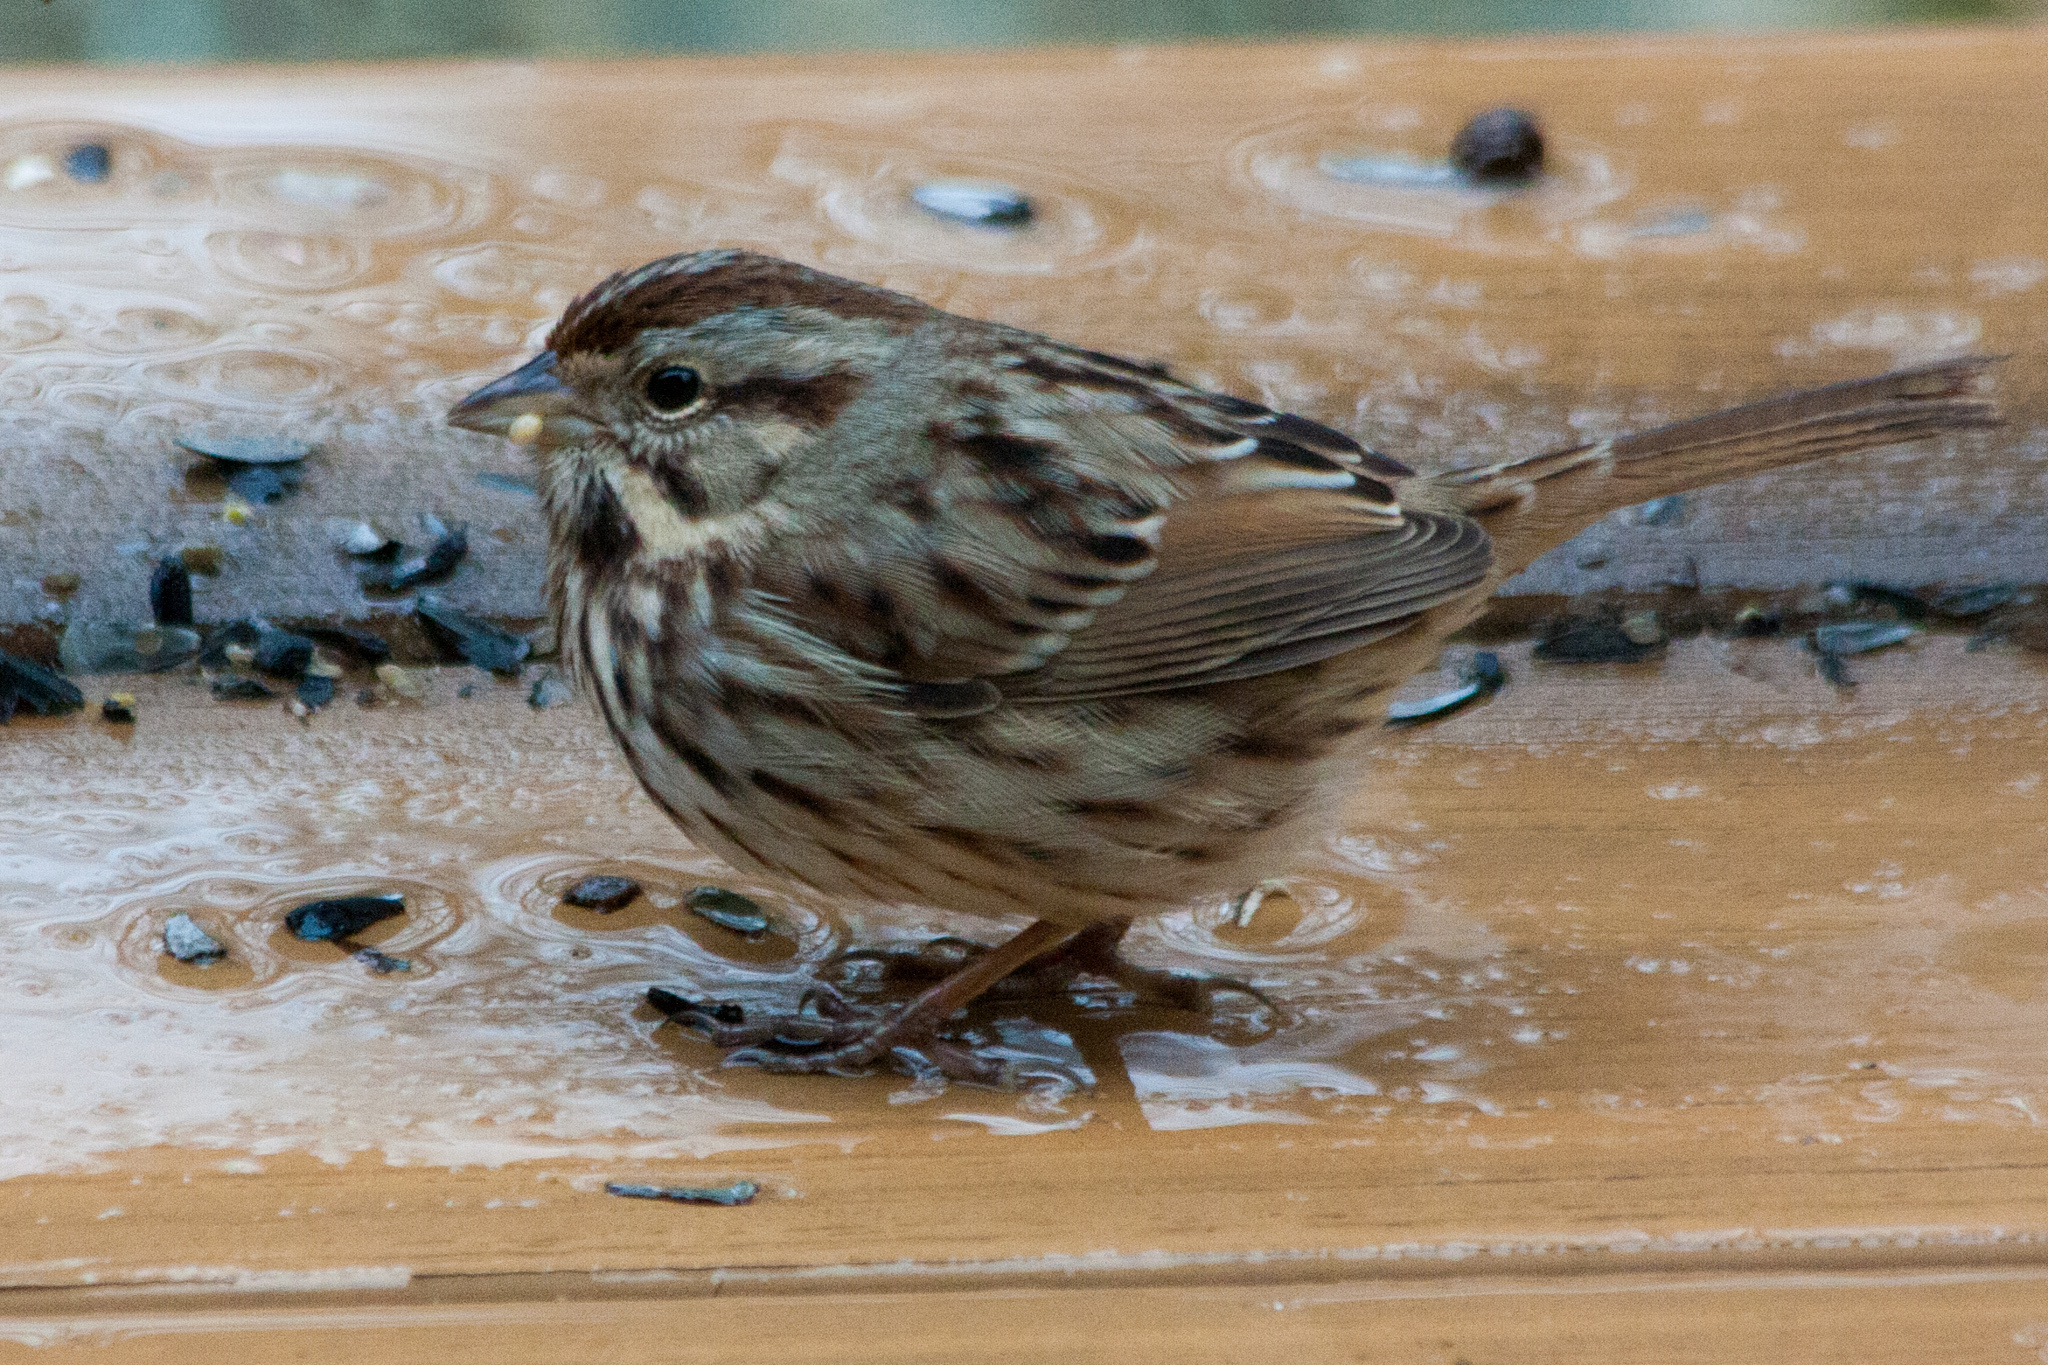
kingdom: Animalia
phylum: Chordata
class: Aves
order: Passeriformes
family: Passerellidae
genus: Melospiza
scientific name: Melospiza melodia
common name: Song sparrow
